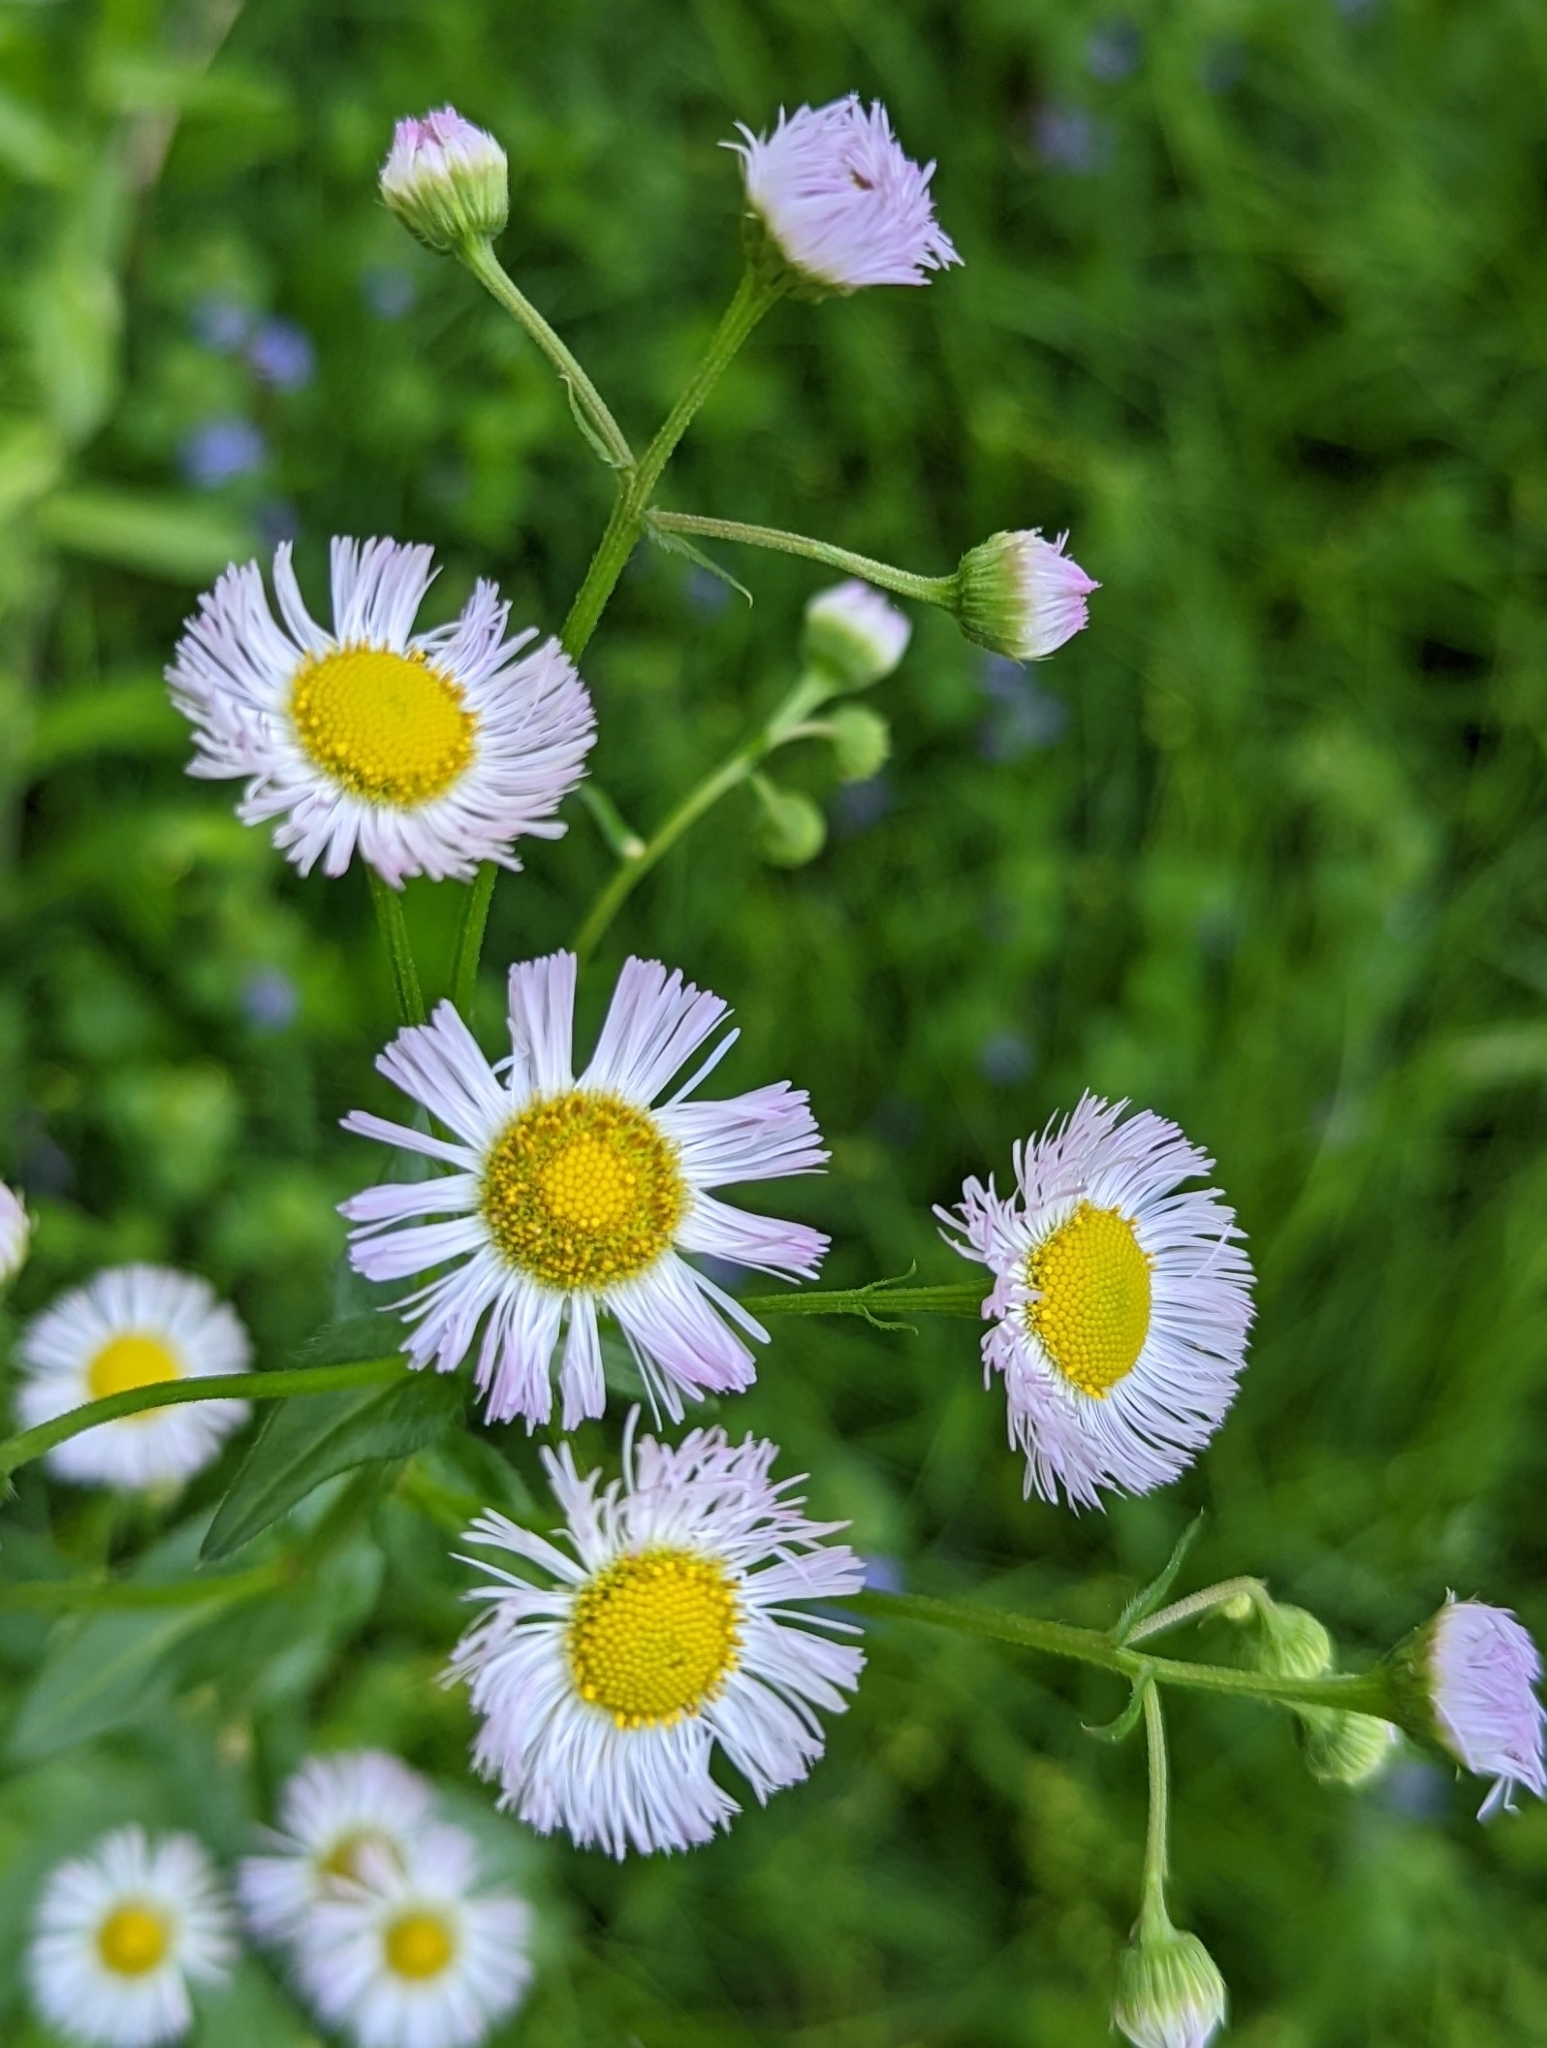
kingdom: Plantae
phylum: Tracheophyta
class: Magnoliopsida
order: Asterales
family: Asteraceae
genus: Erigeron
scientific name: Erigeron philadelphicus
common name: Robin's-plantain
